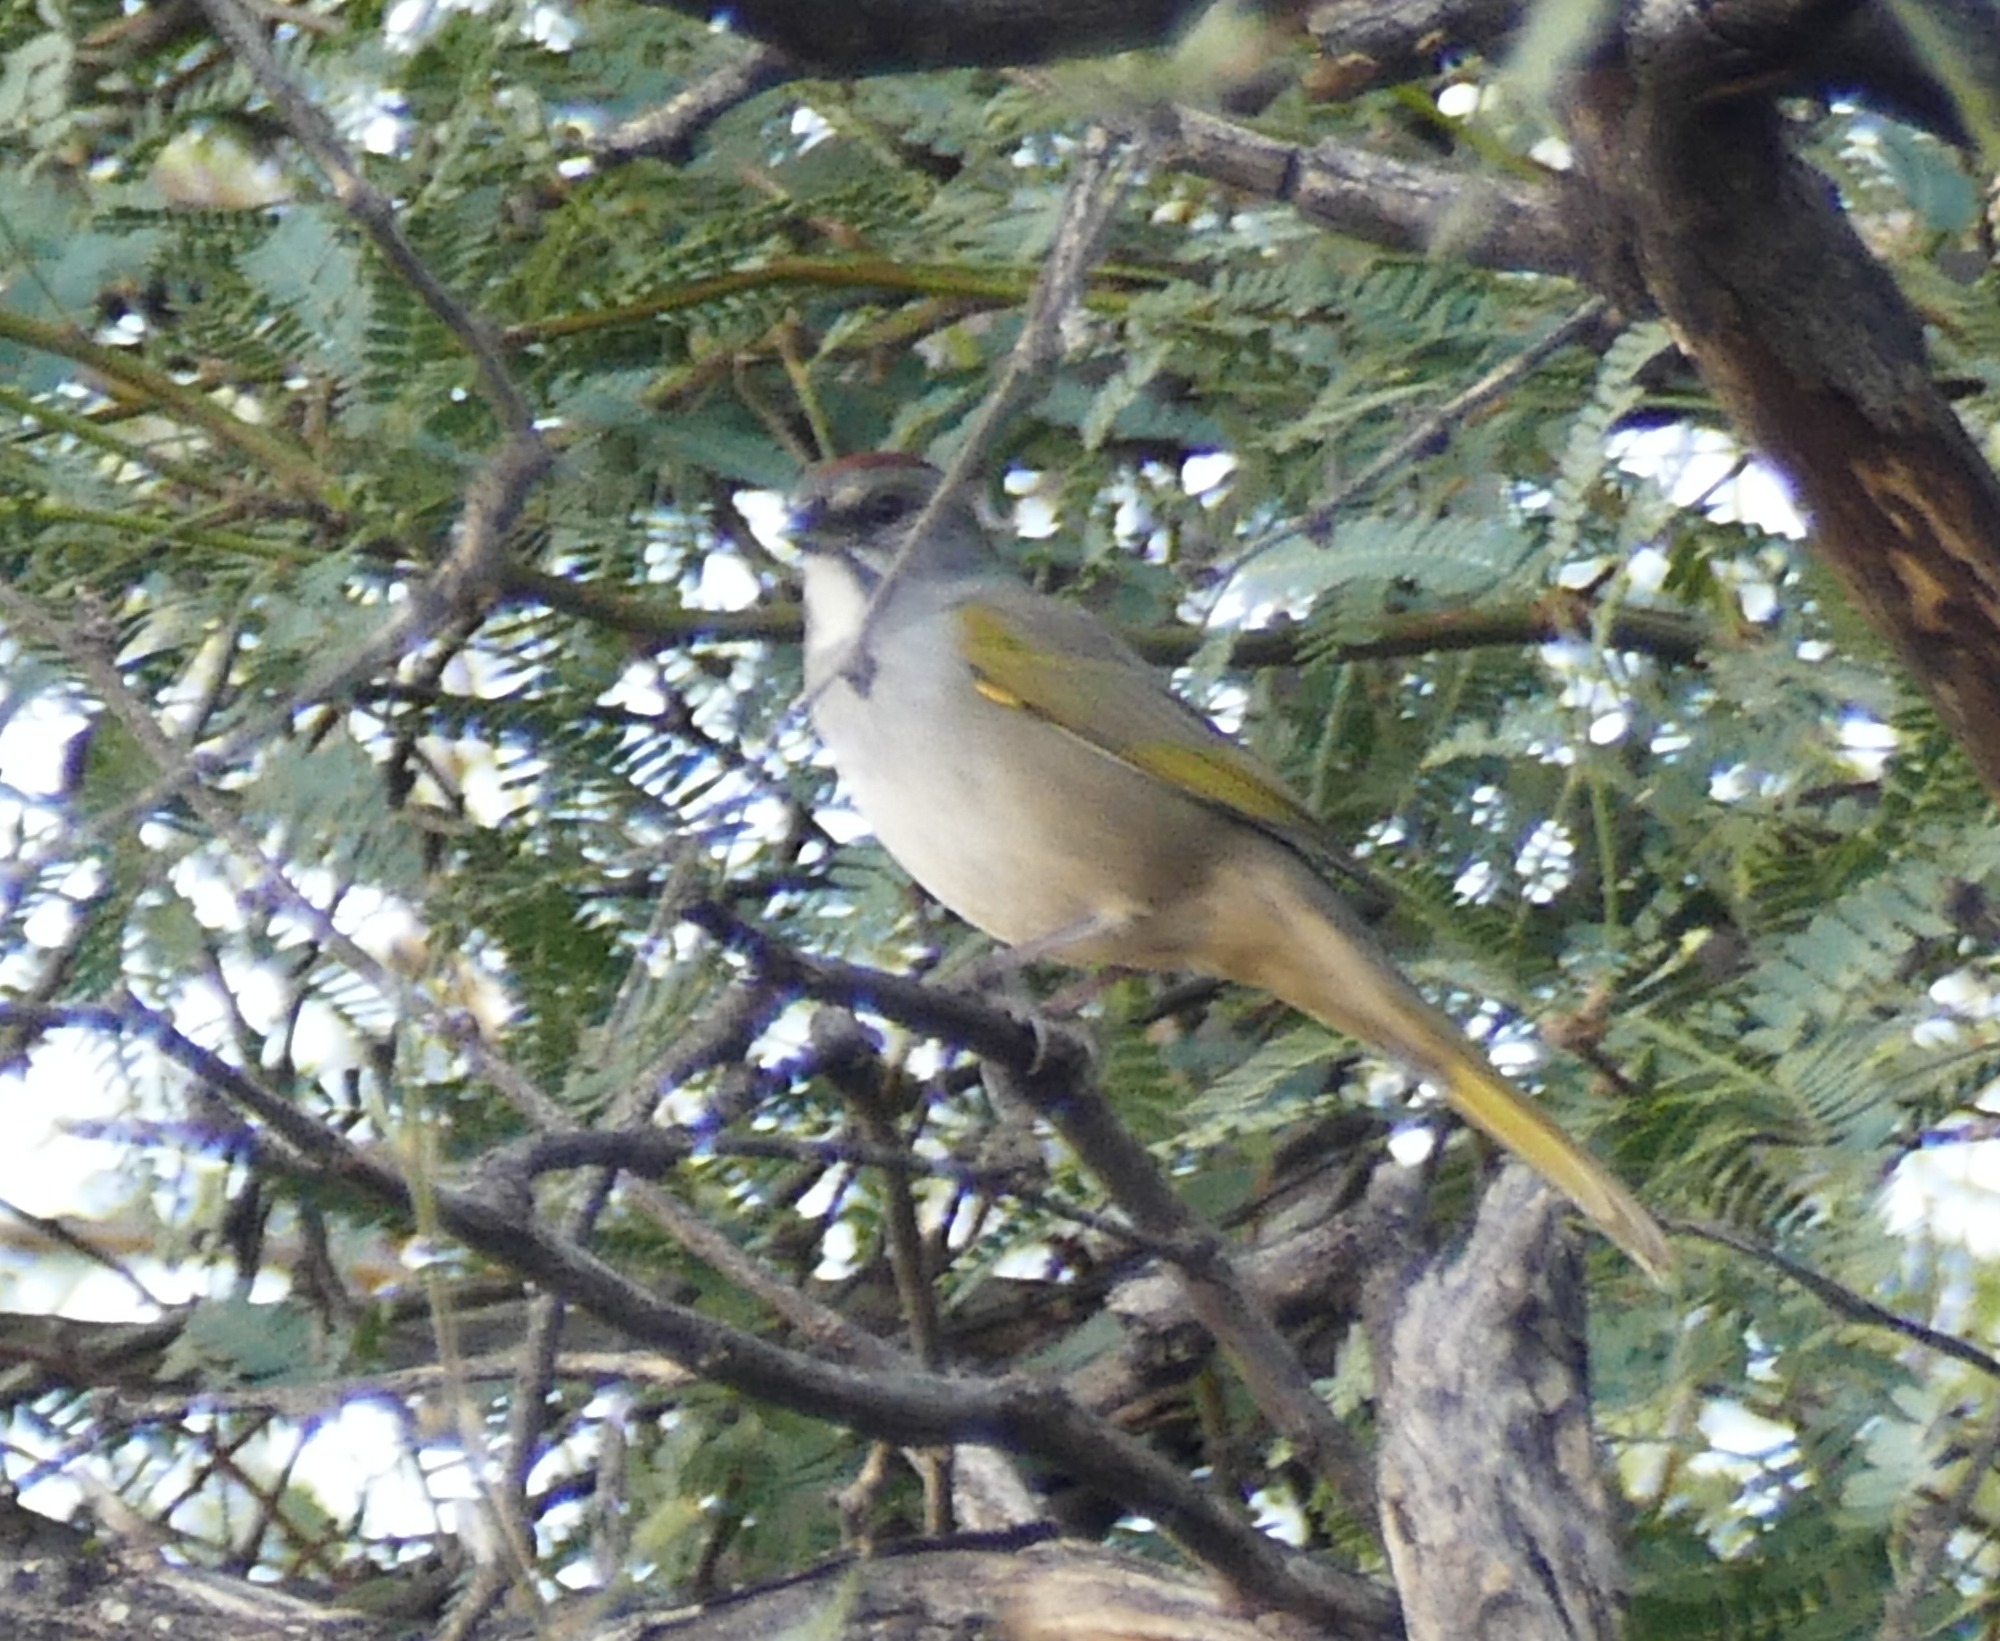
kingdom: Animalia
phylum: Chordata
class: Aves
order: Passeriformes
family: Passerellidae
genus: Pipilo
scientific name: Pipilo chlorurus
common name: Green-tailed towhee
